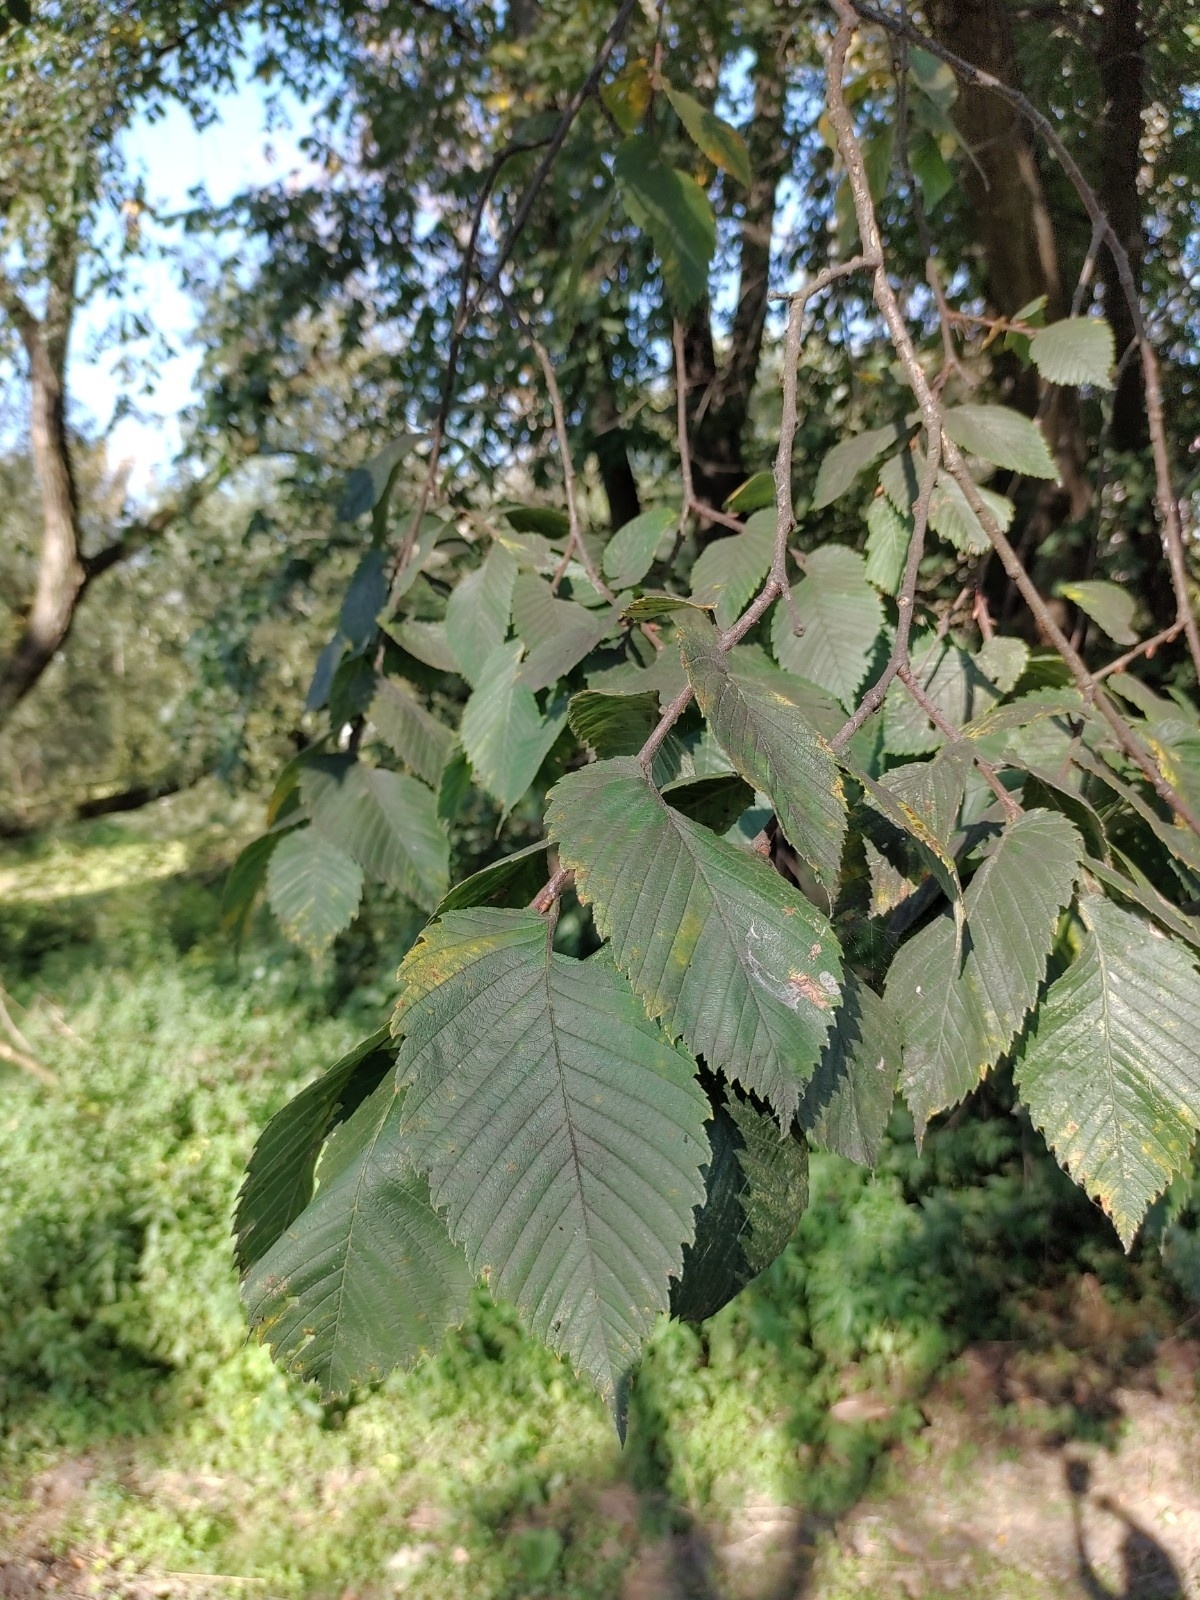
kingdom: Plantae
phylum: Tracheophyta
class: Magnoliopsida
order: Rosales
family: Ulmaceae
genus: Ulmus
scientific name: Ulmus laevis
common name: European white-elm
